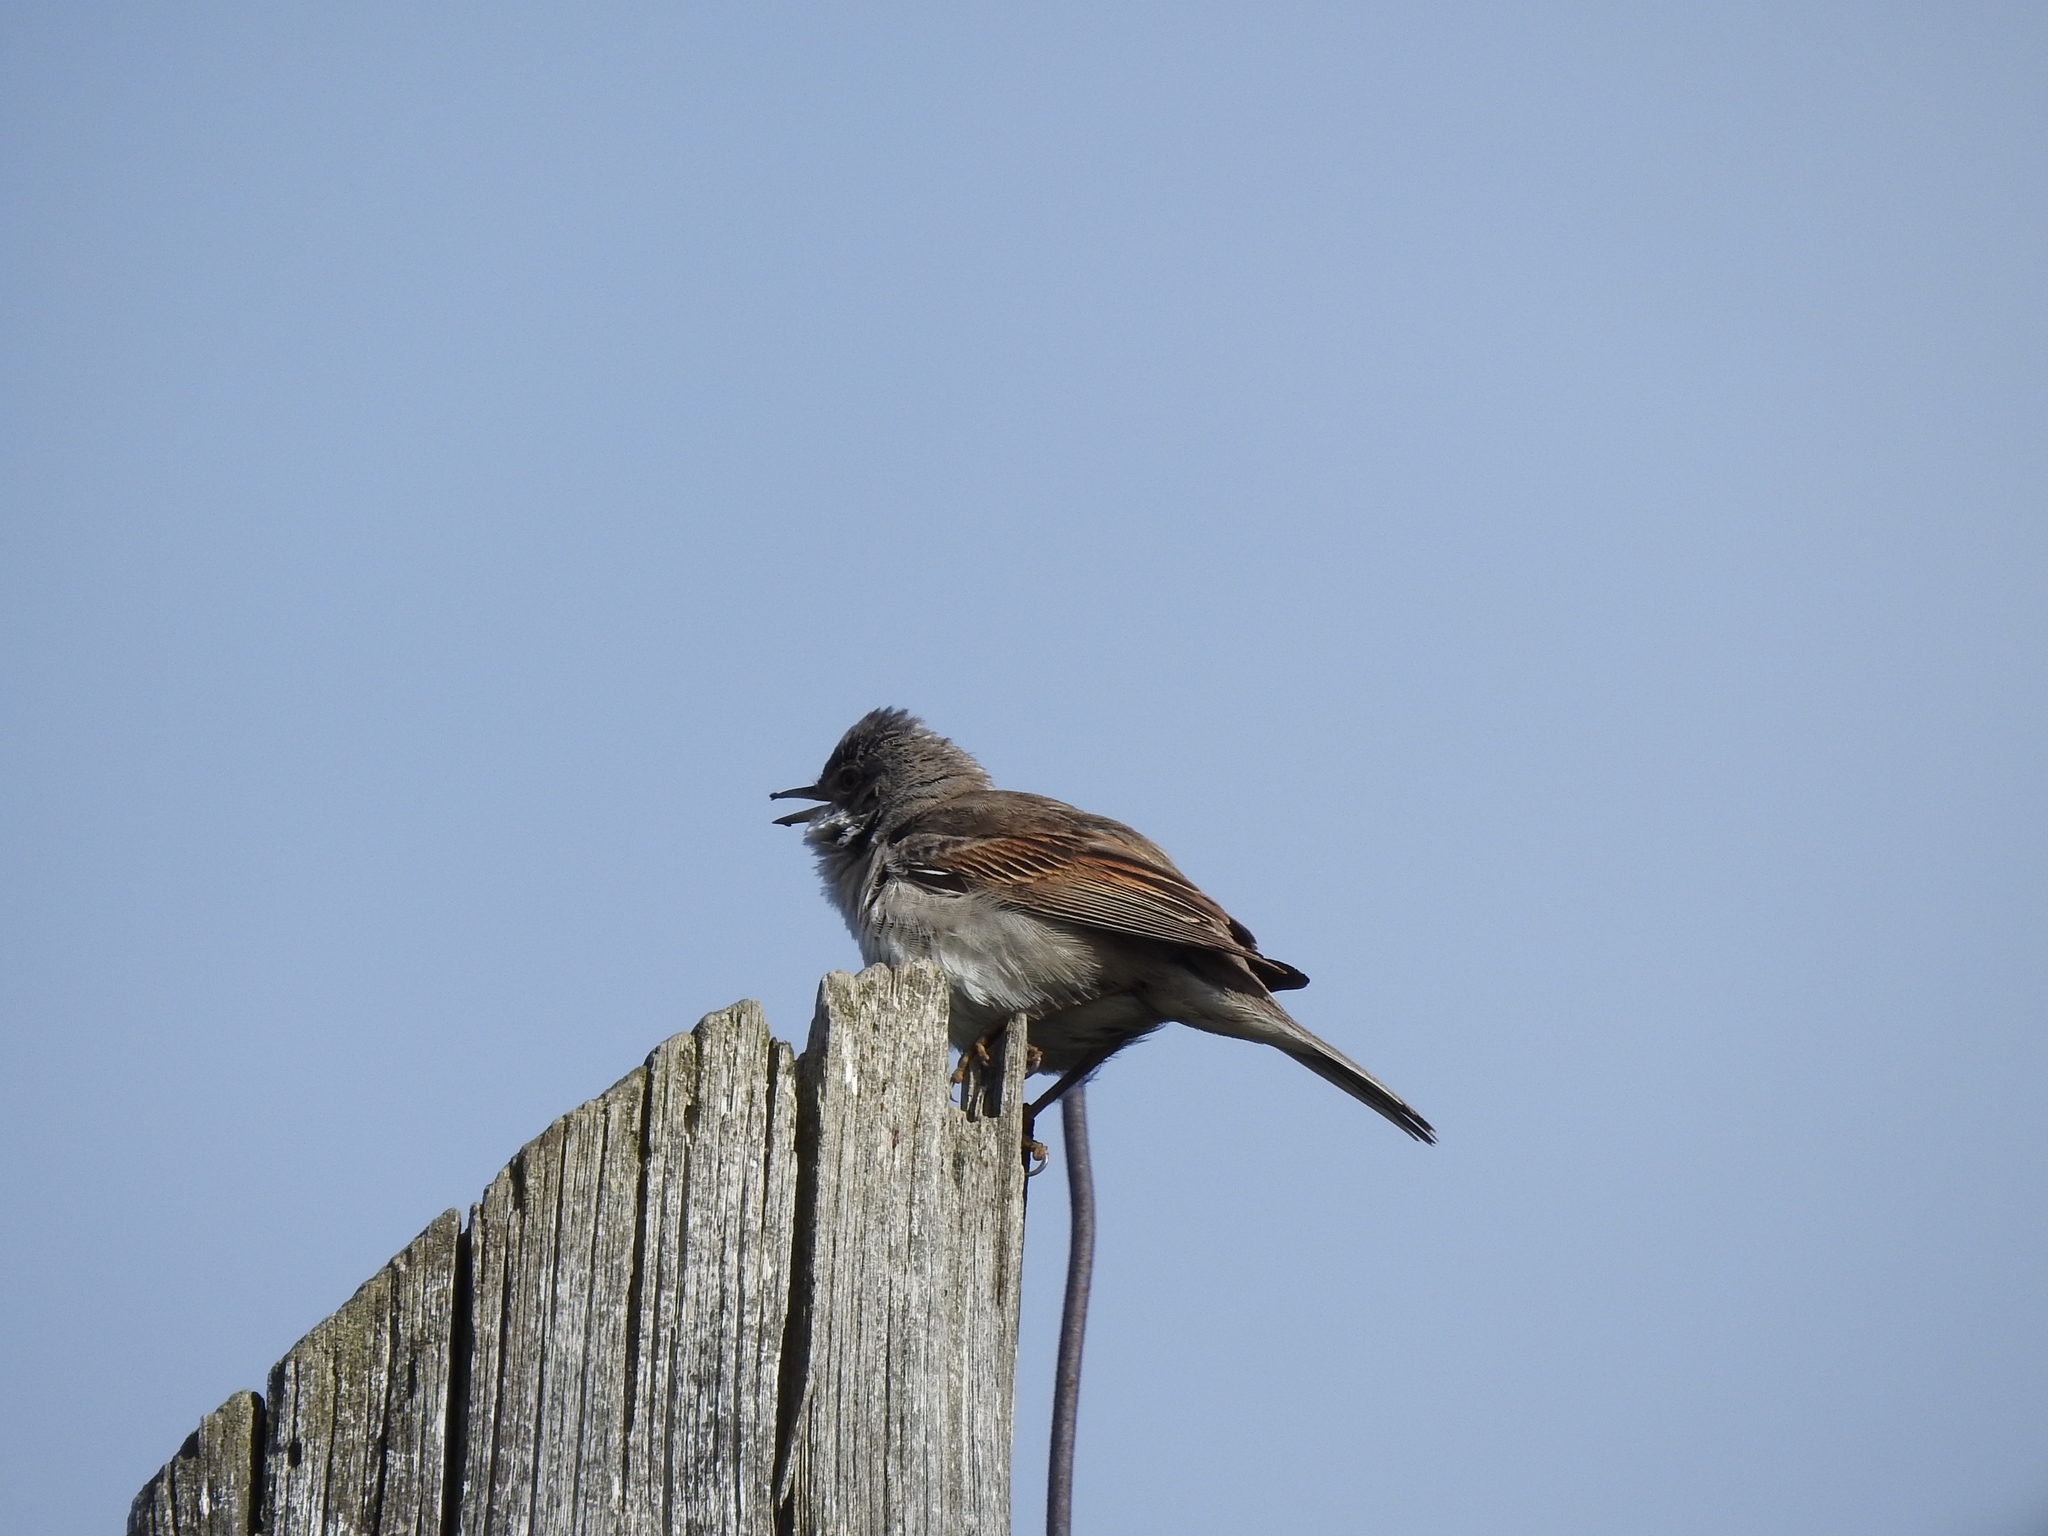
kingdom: Animalia
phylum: Chordata
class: Aves
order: Passeriformes
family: Sylviidae
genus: Sylvia
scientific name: Sylvia communis
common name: Common whitethroat
